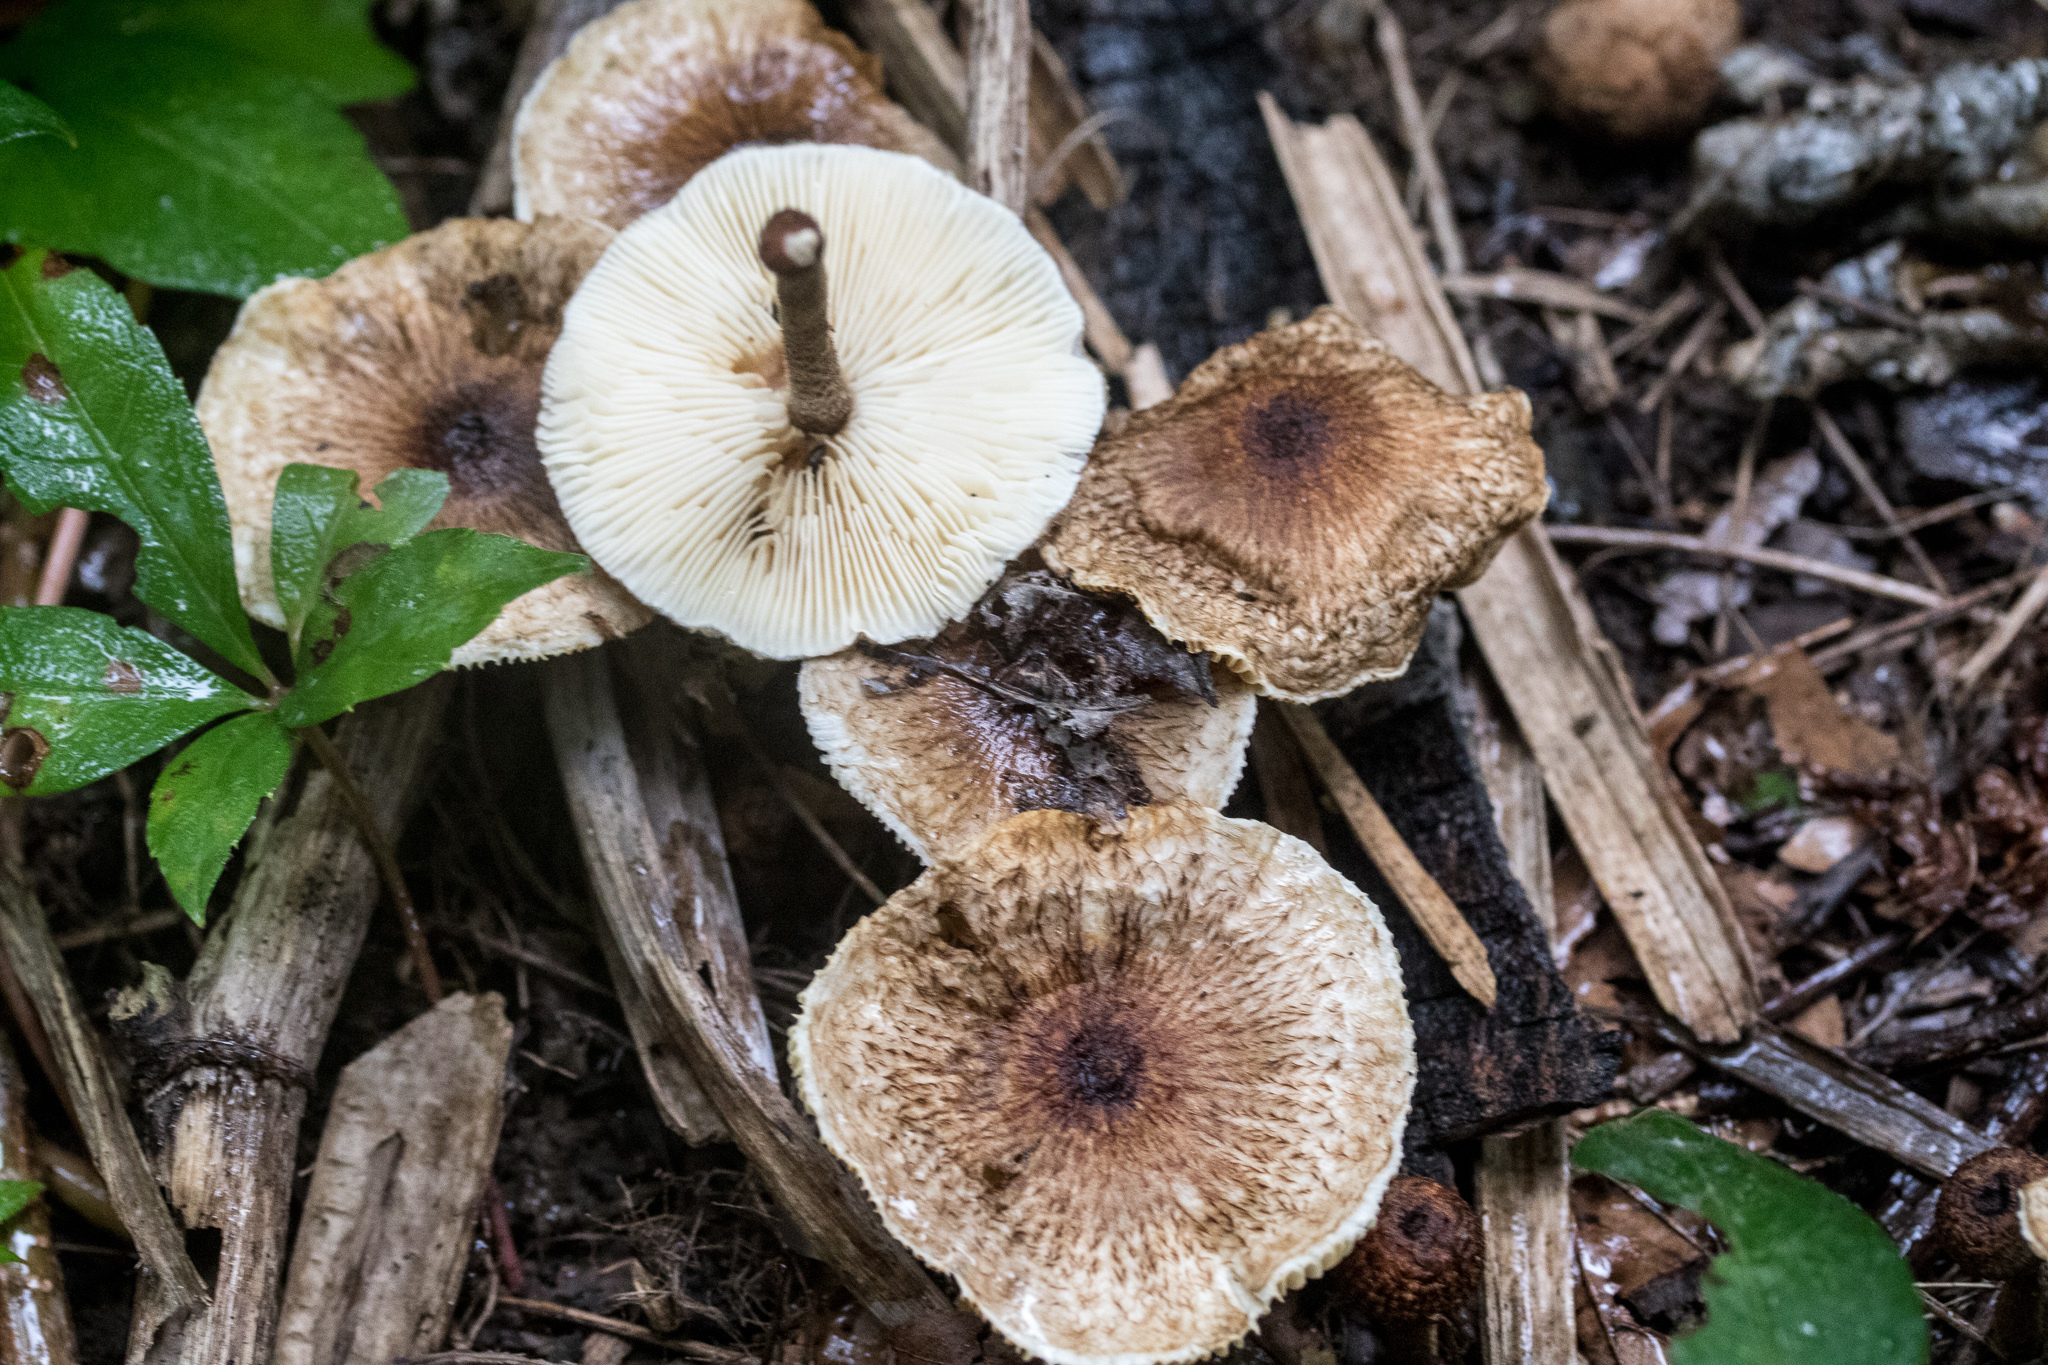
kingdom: Fungi
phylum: Basidiomycota
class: Agaricomycetes
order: Agaricales
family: Tricholomataceae
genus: Collybia
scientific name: Collybia zonata
